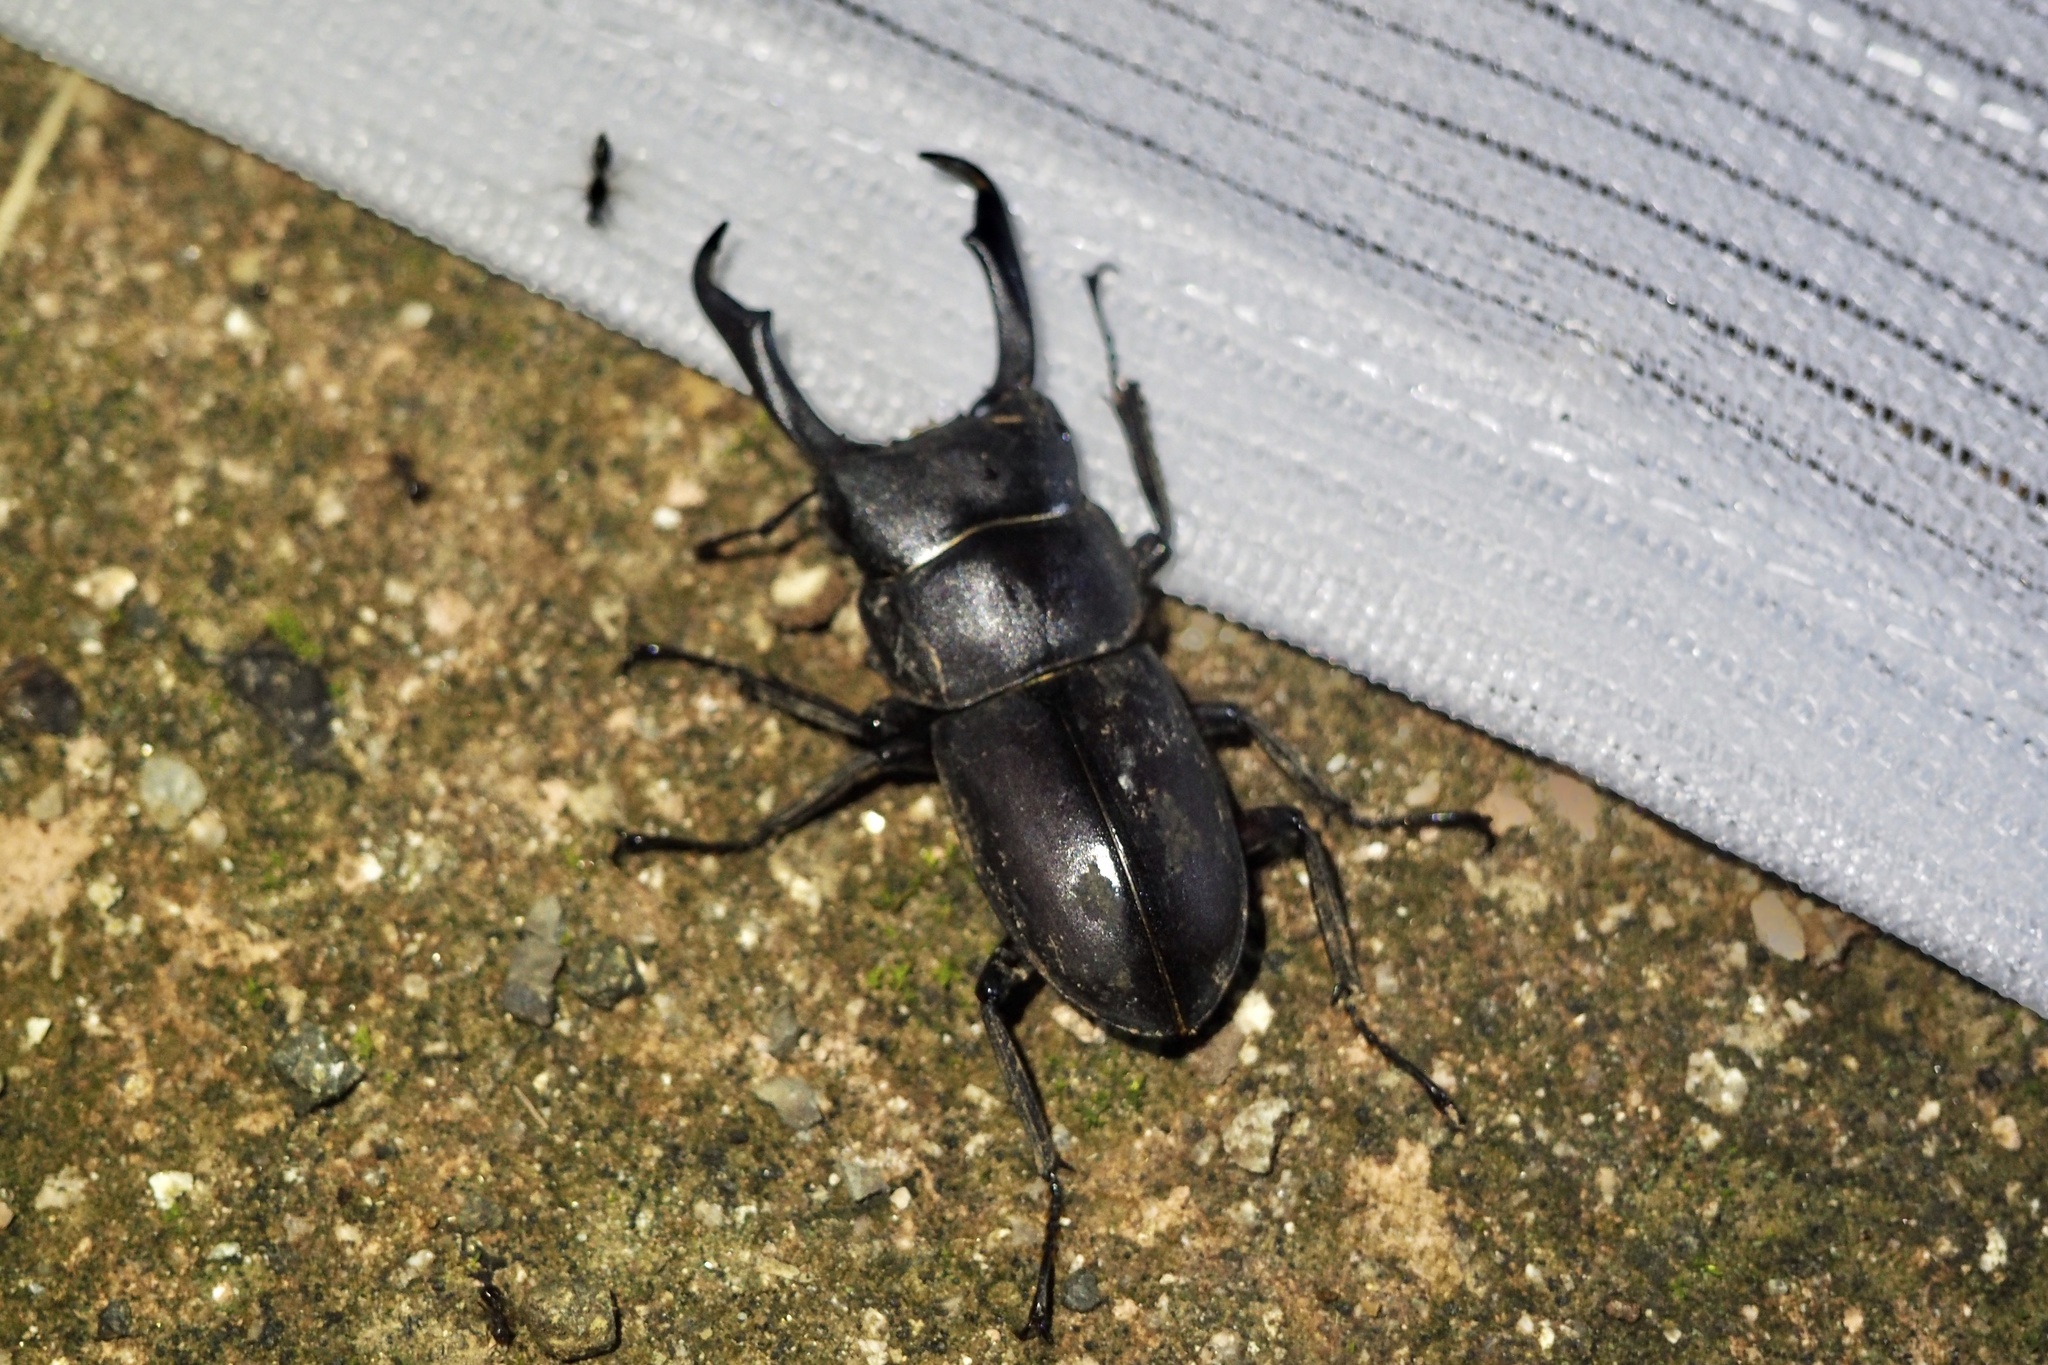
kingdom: Animalia
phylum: Arthropoda
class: Insecta
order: Coleoptera
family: Lucanidae
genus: Dorcus
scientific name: Dorcus rectus
